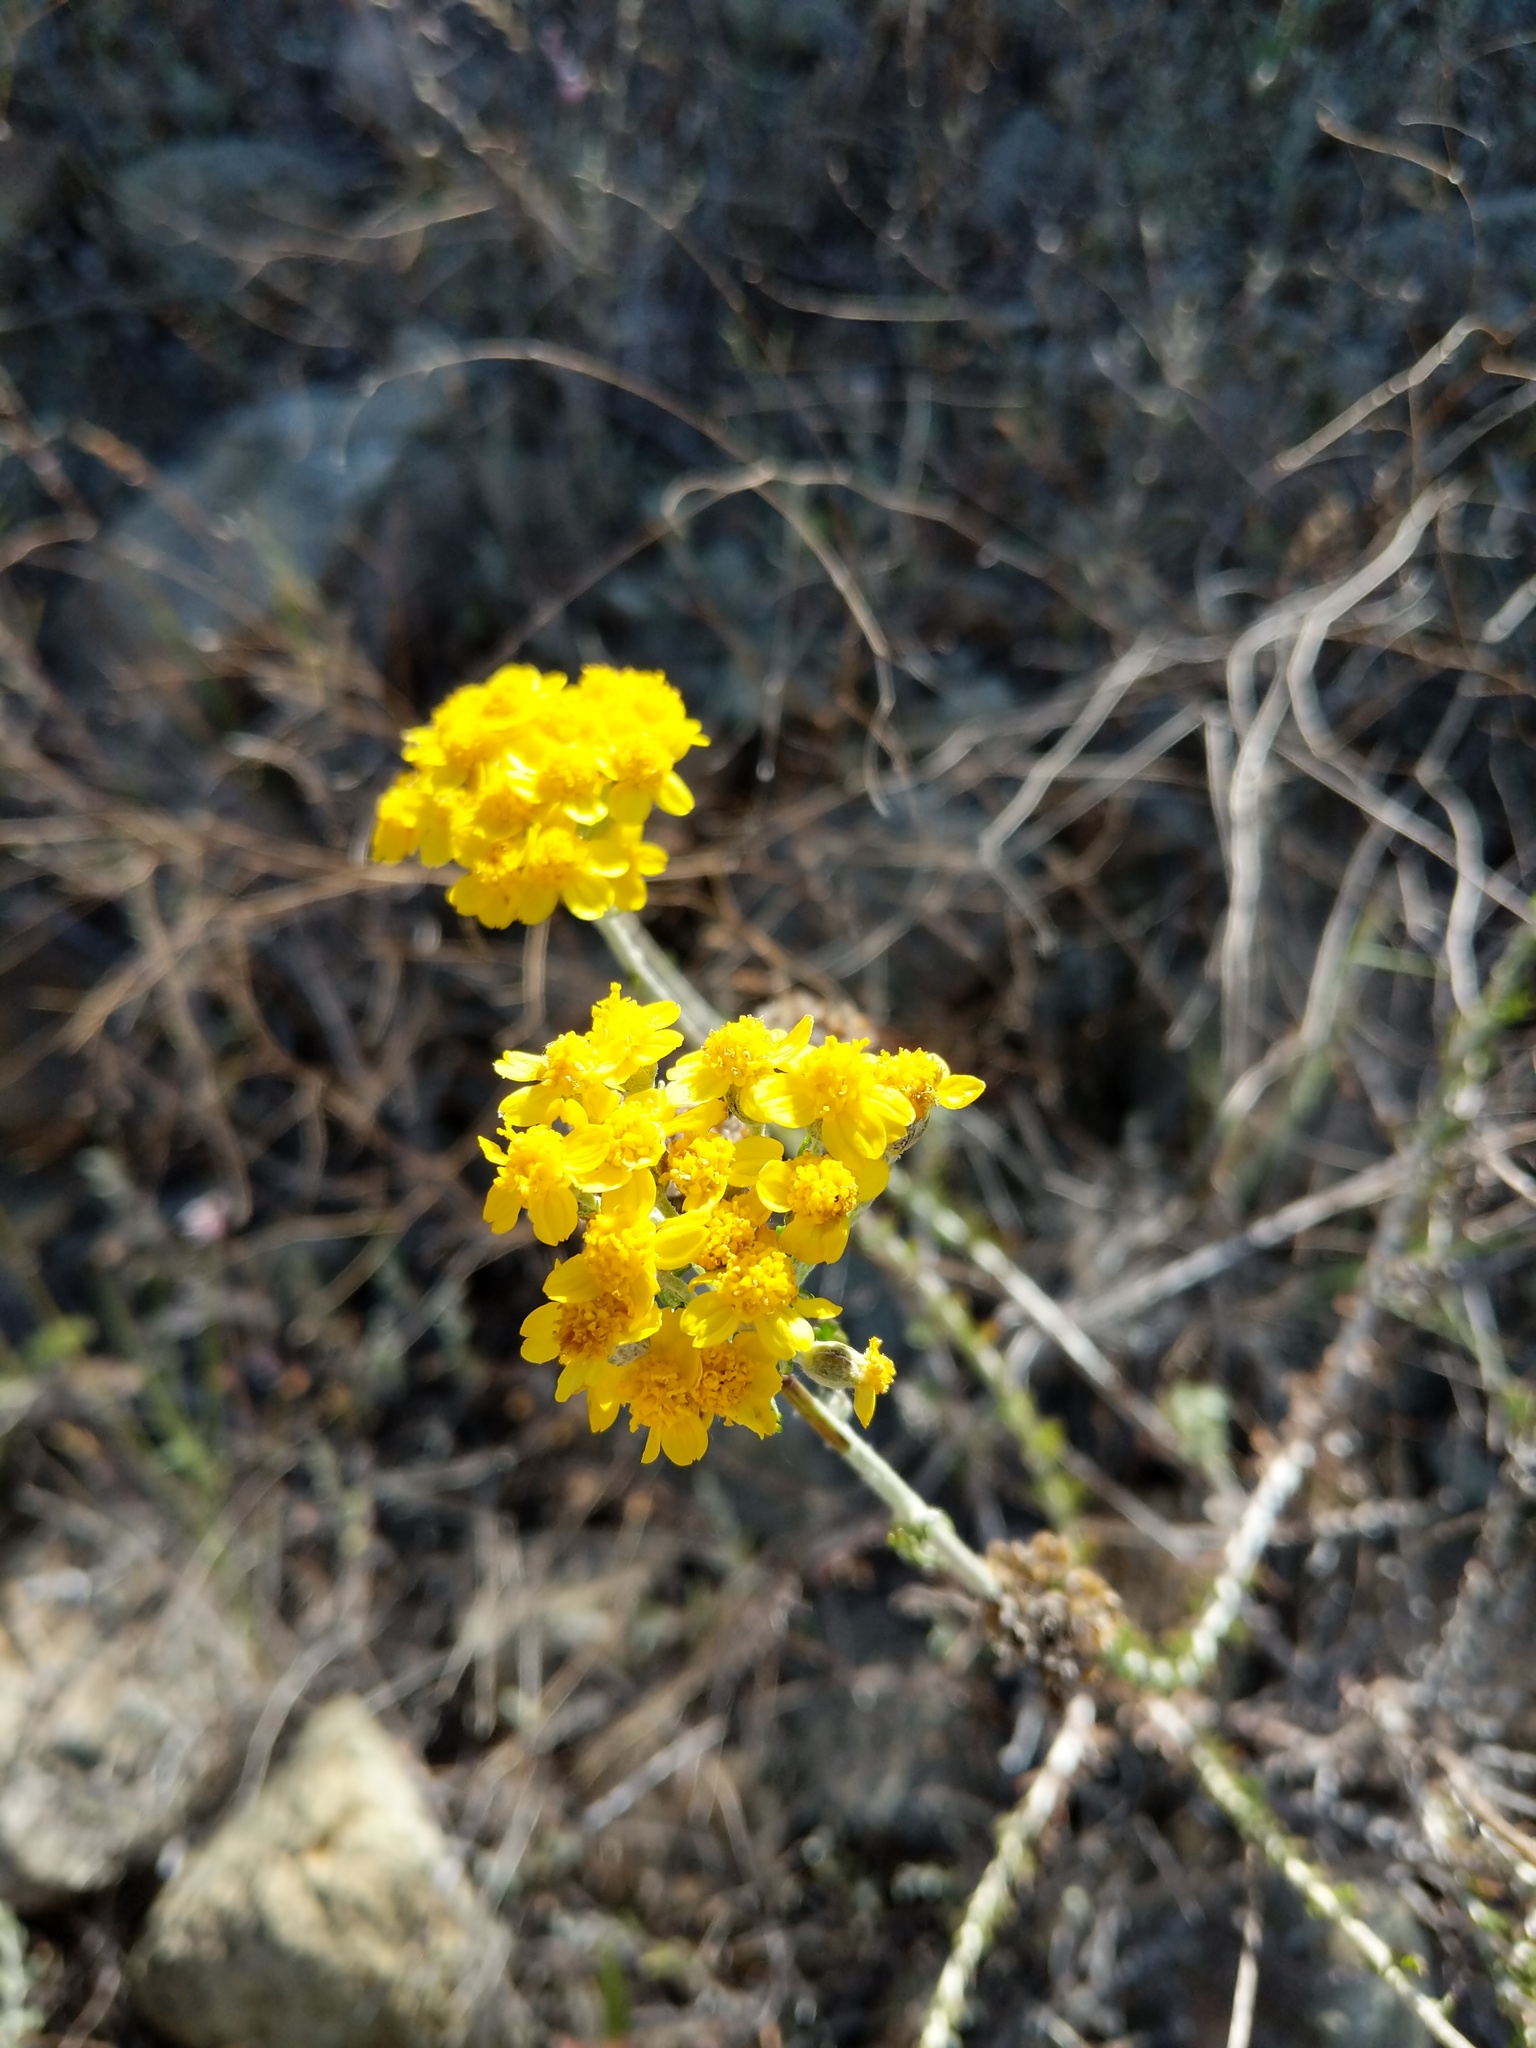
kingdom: Plantae
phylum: Tracheophyta
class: Magnoliopsida
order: Asterales
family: Asteraceae
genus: Eriophyllum
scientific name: Eriophyllum confertiflorum
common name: Golden-yarrow
